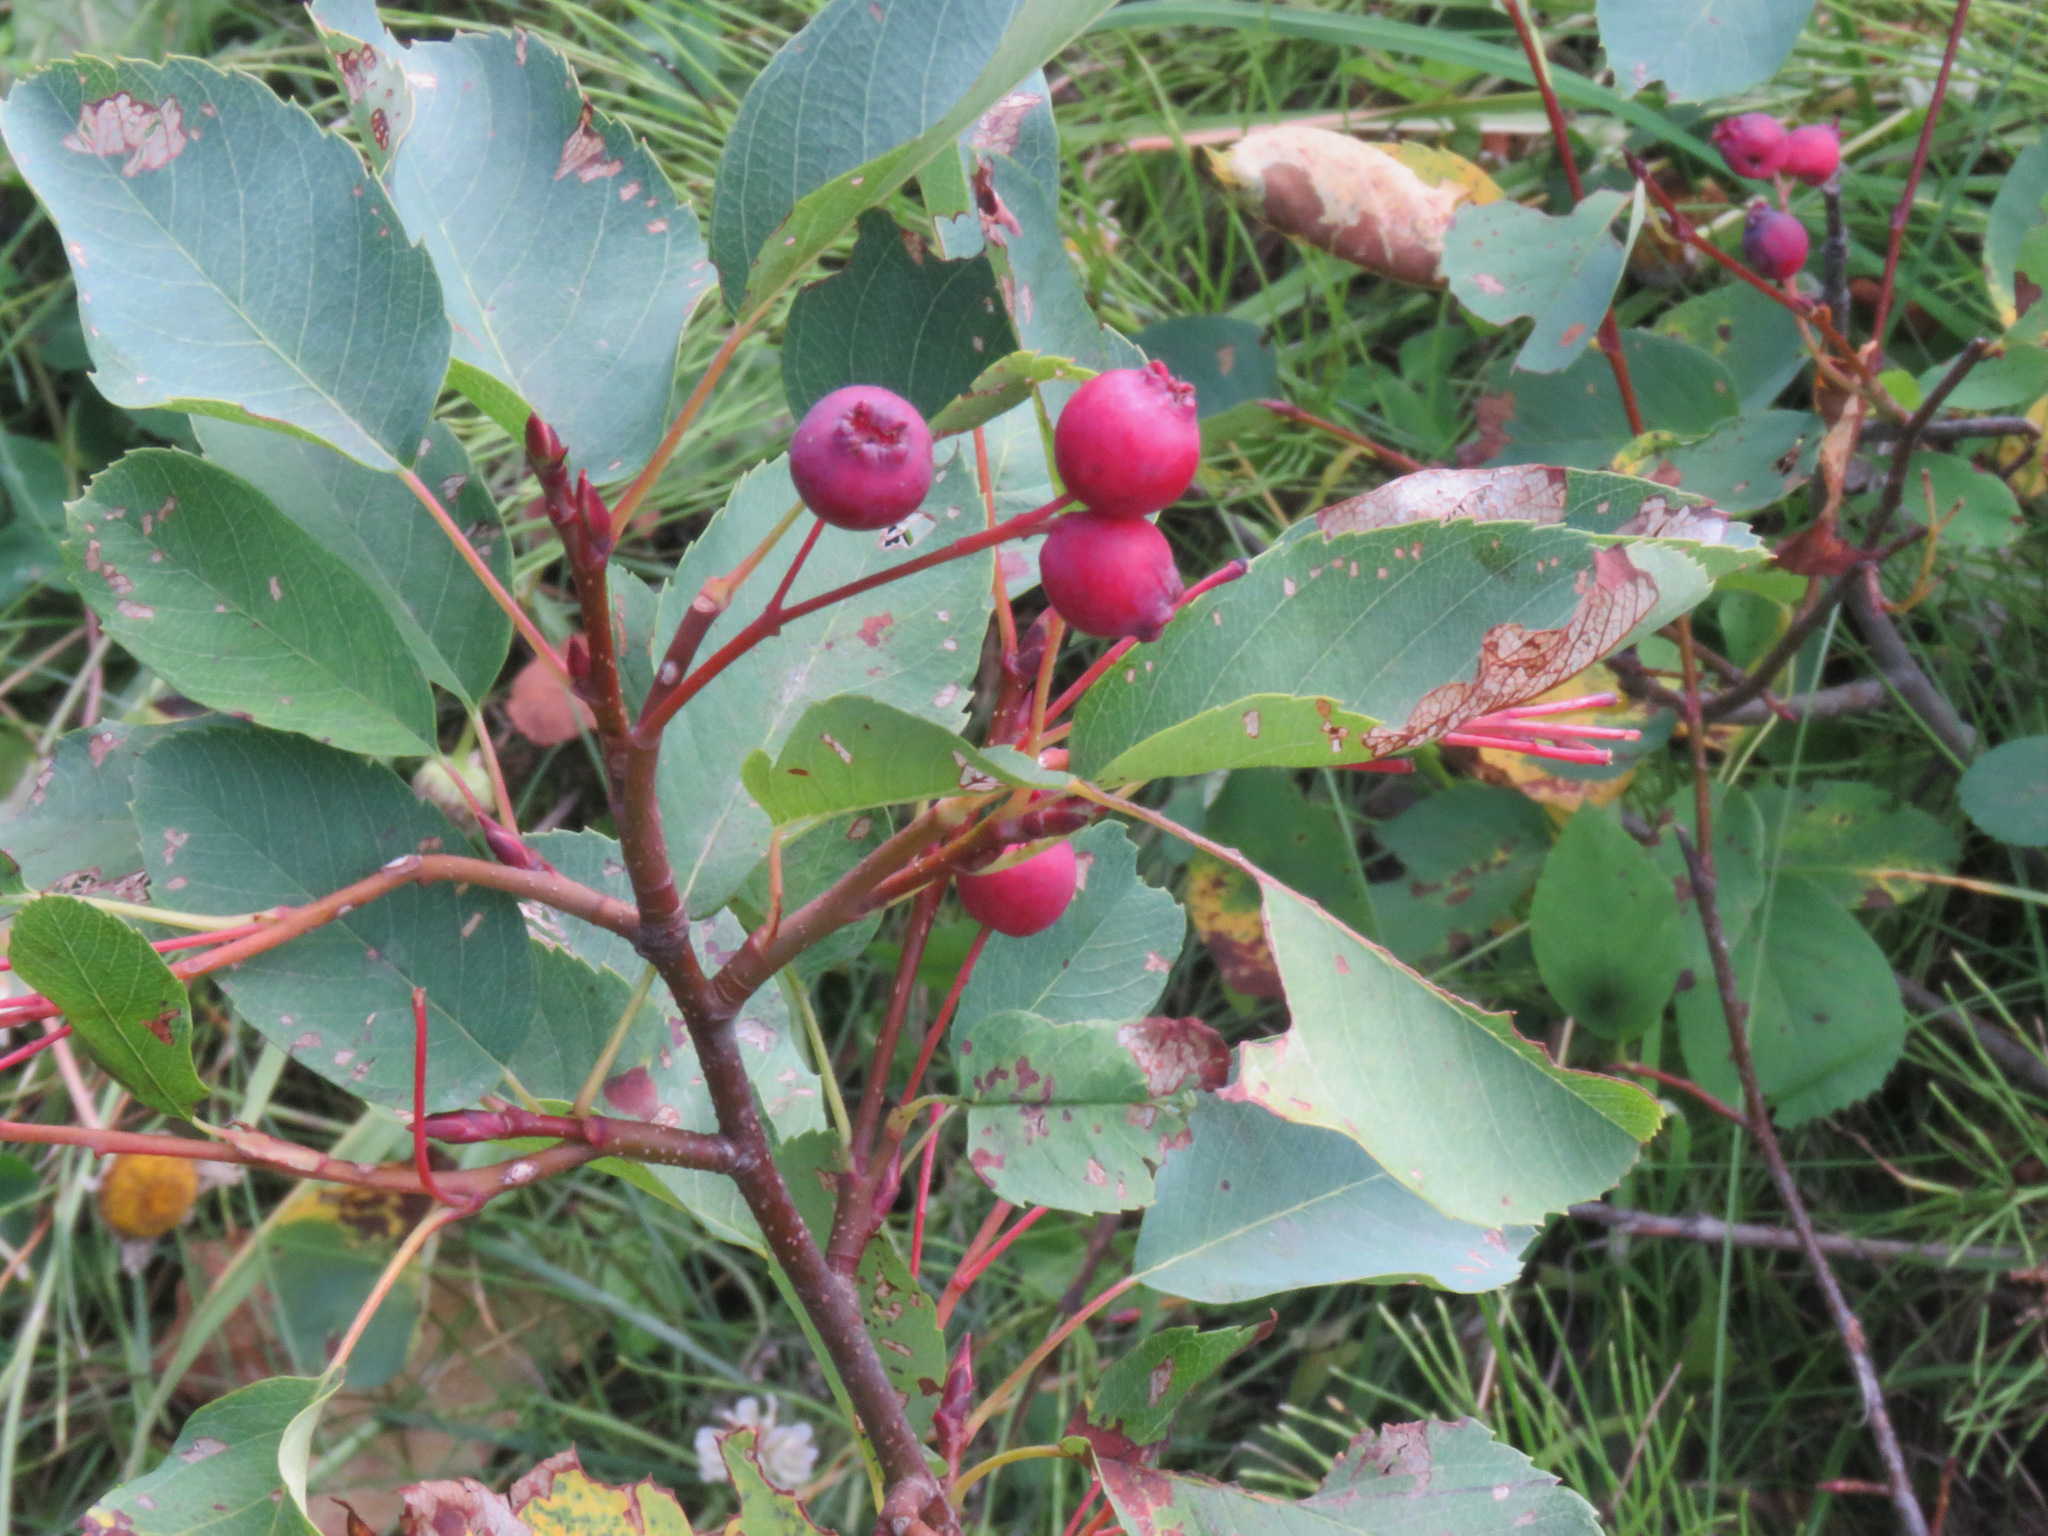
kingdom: Plantae
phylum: Tracheophyta
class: Magnoliopsida
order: Rosales
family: Rosaceae
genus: Amelanchier
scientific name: Amelanchier alnifolia
